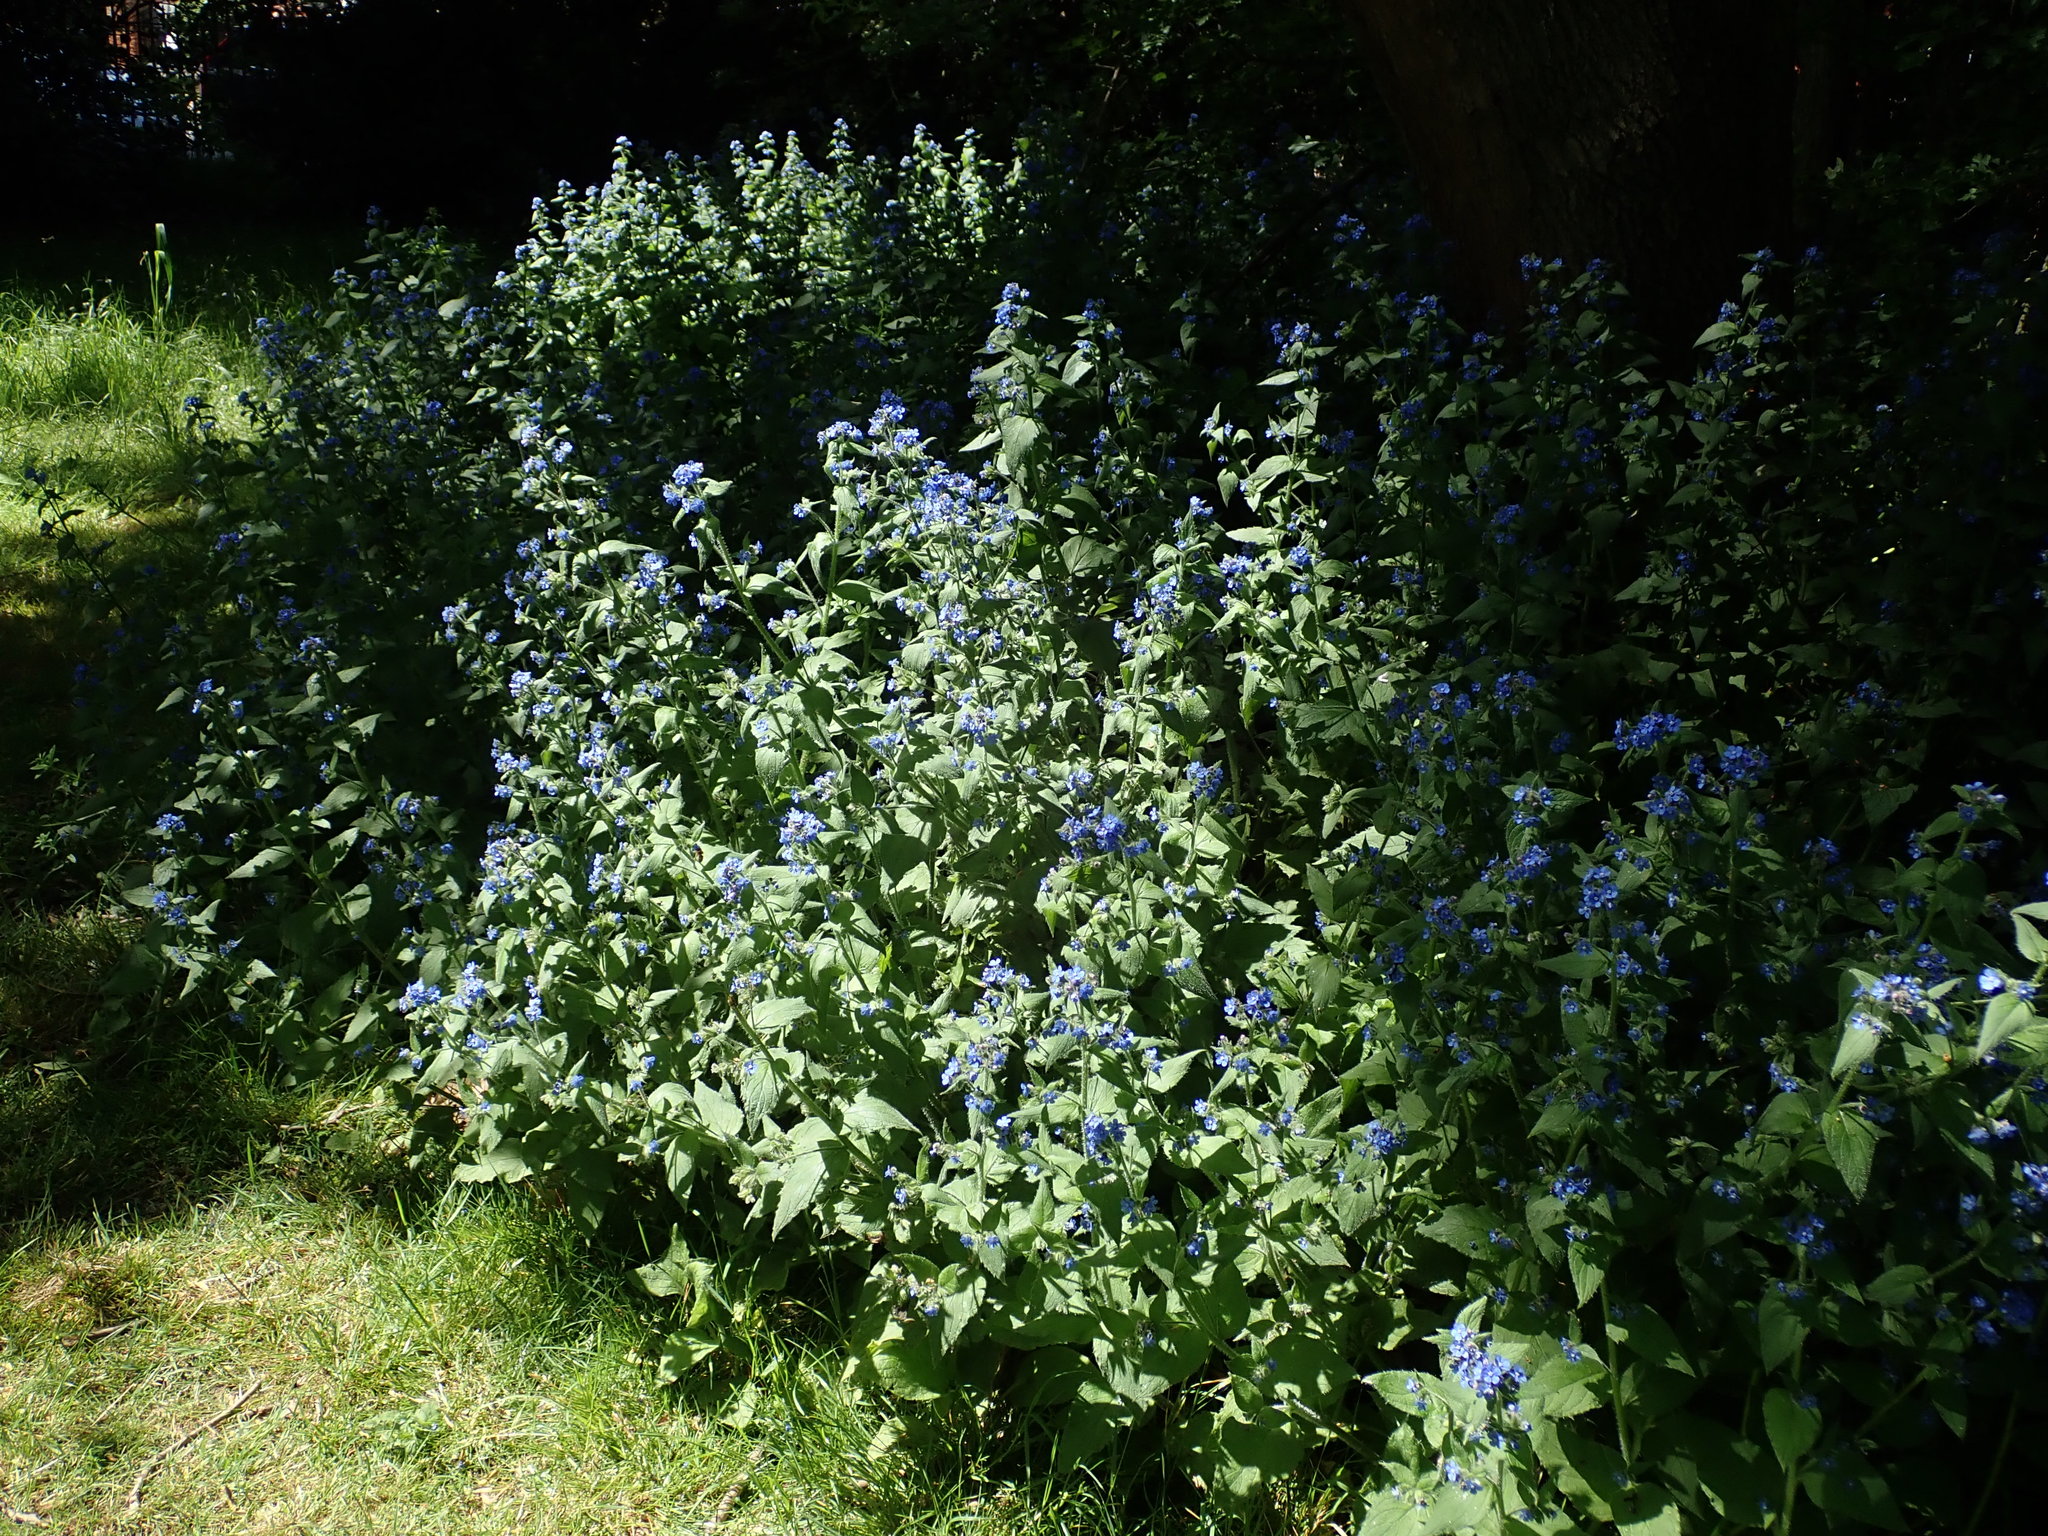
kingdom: Plantae
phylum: Tracheophyta
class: Magnoliopsida
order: Boraginales
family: Boraginaceae
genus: Pentaglottis
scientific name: Pentaglottis sempervirens
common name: Green alkanet
